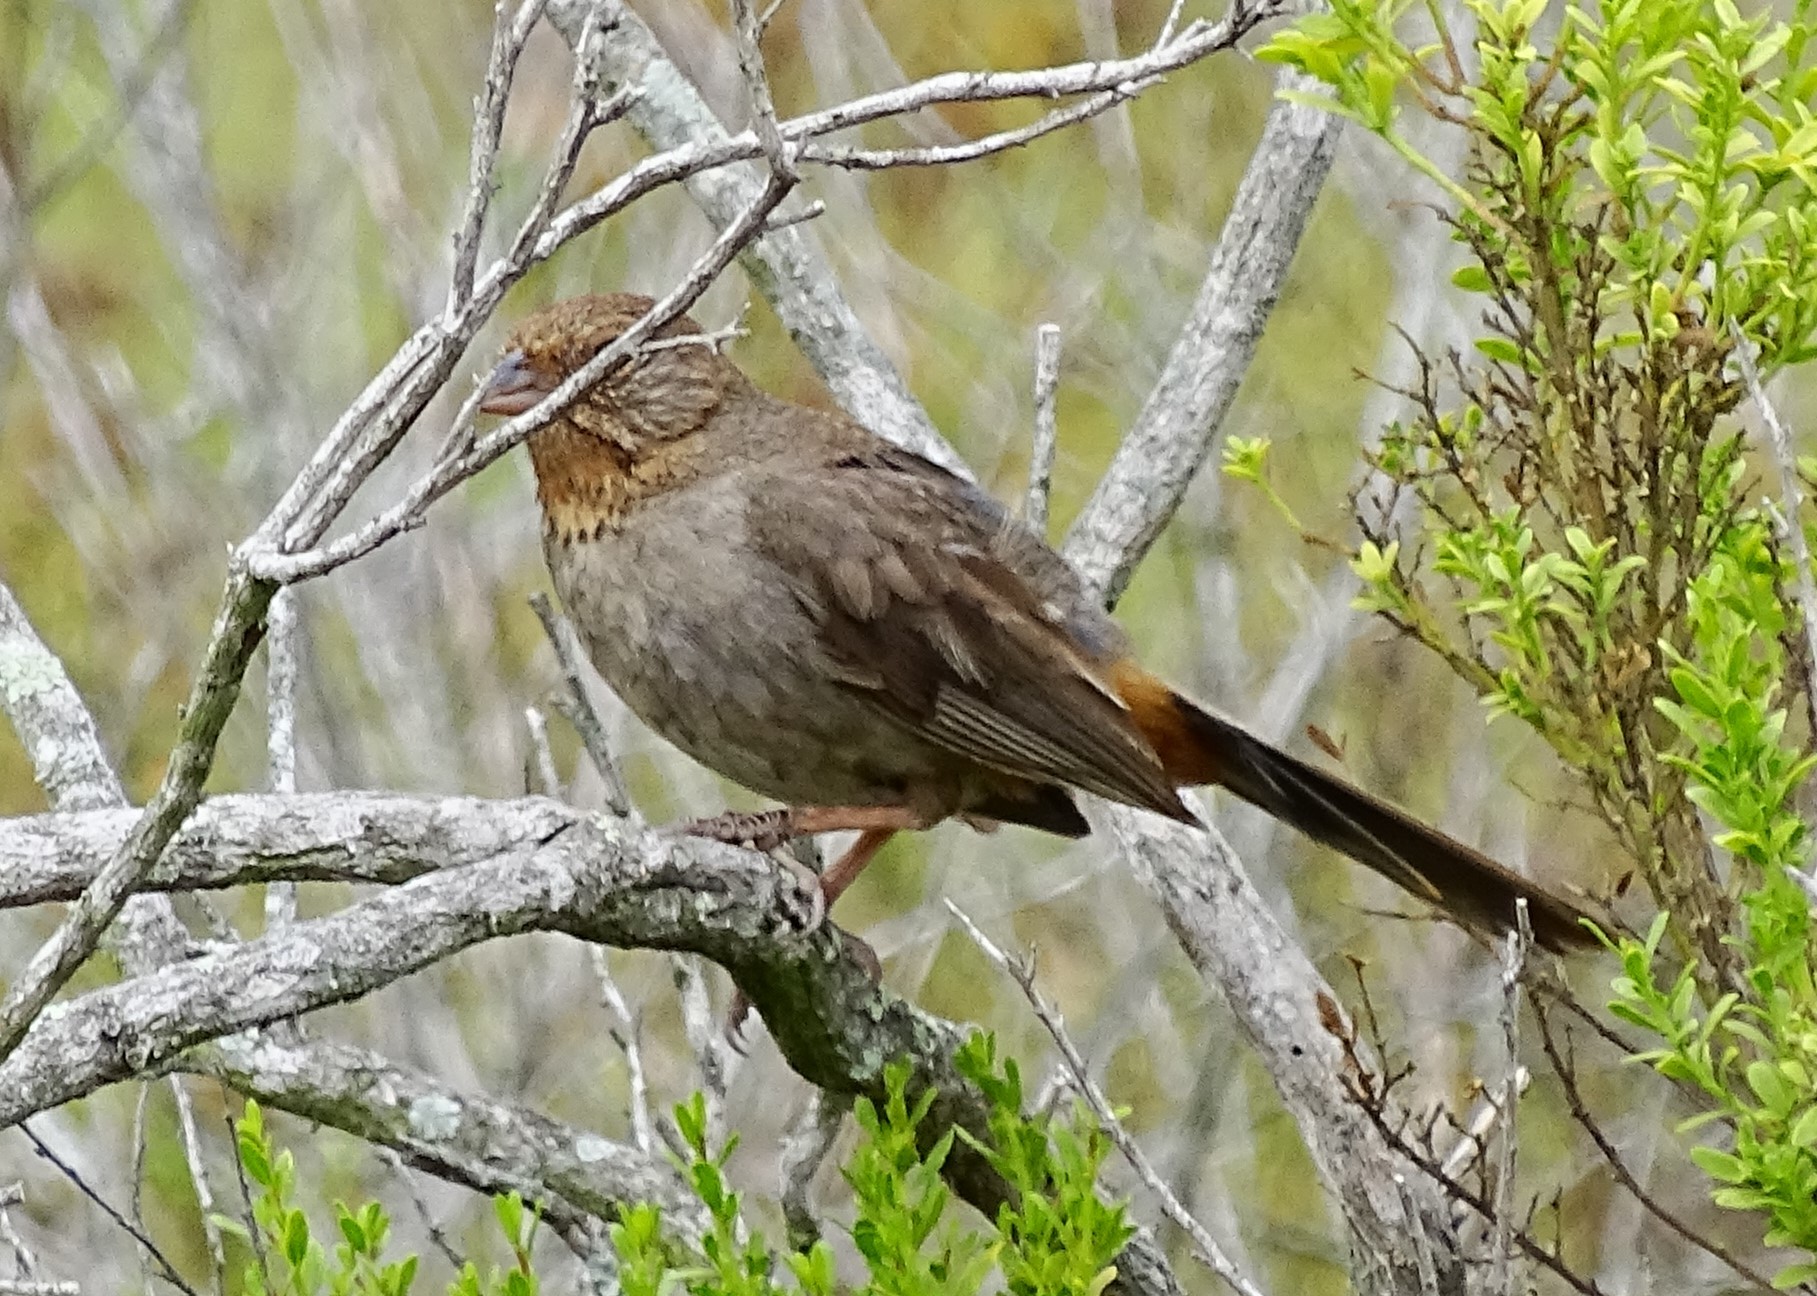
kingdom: Animalia
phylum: Chordata
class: Aves
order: Passeriformes
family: Passerellidae
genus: Melozone
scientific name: Melozone crissalis
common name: California towhee
